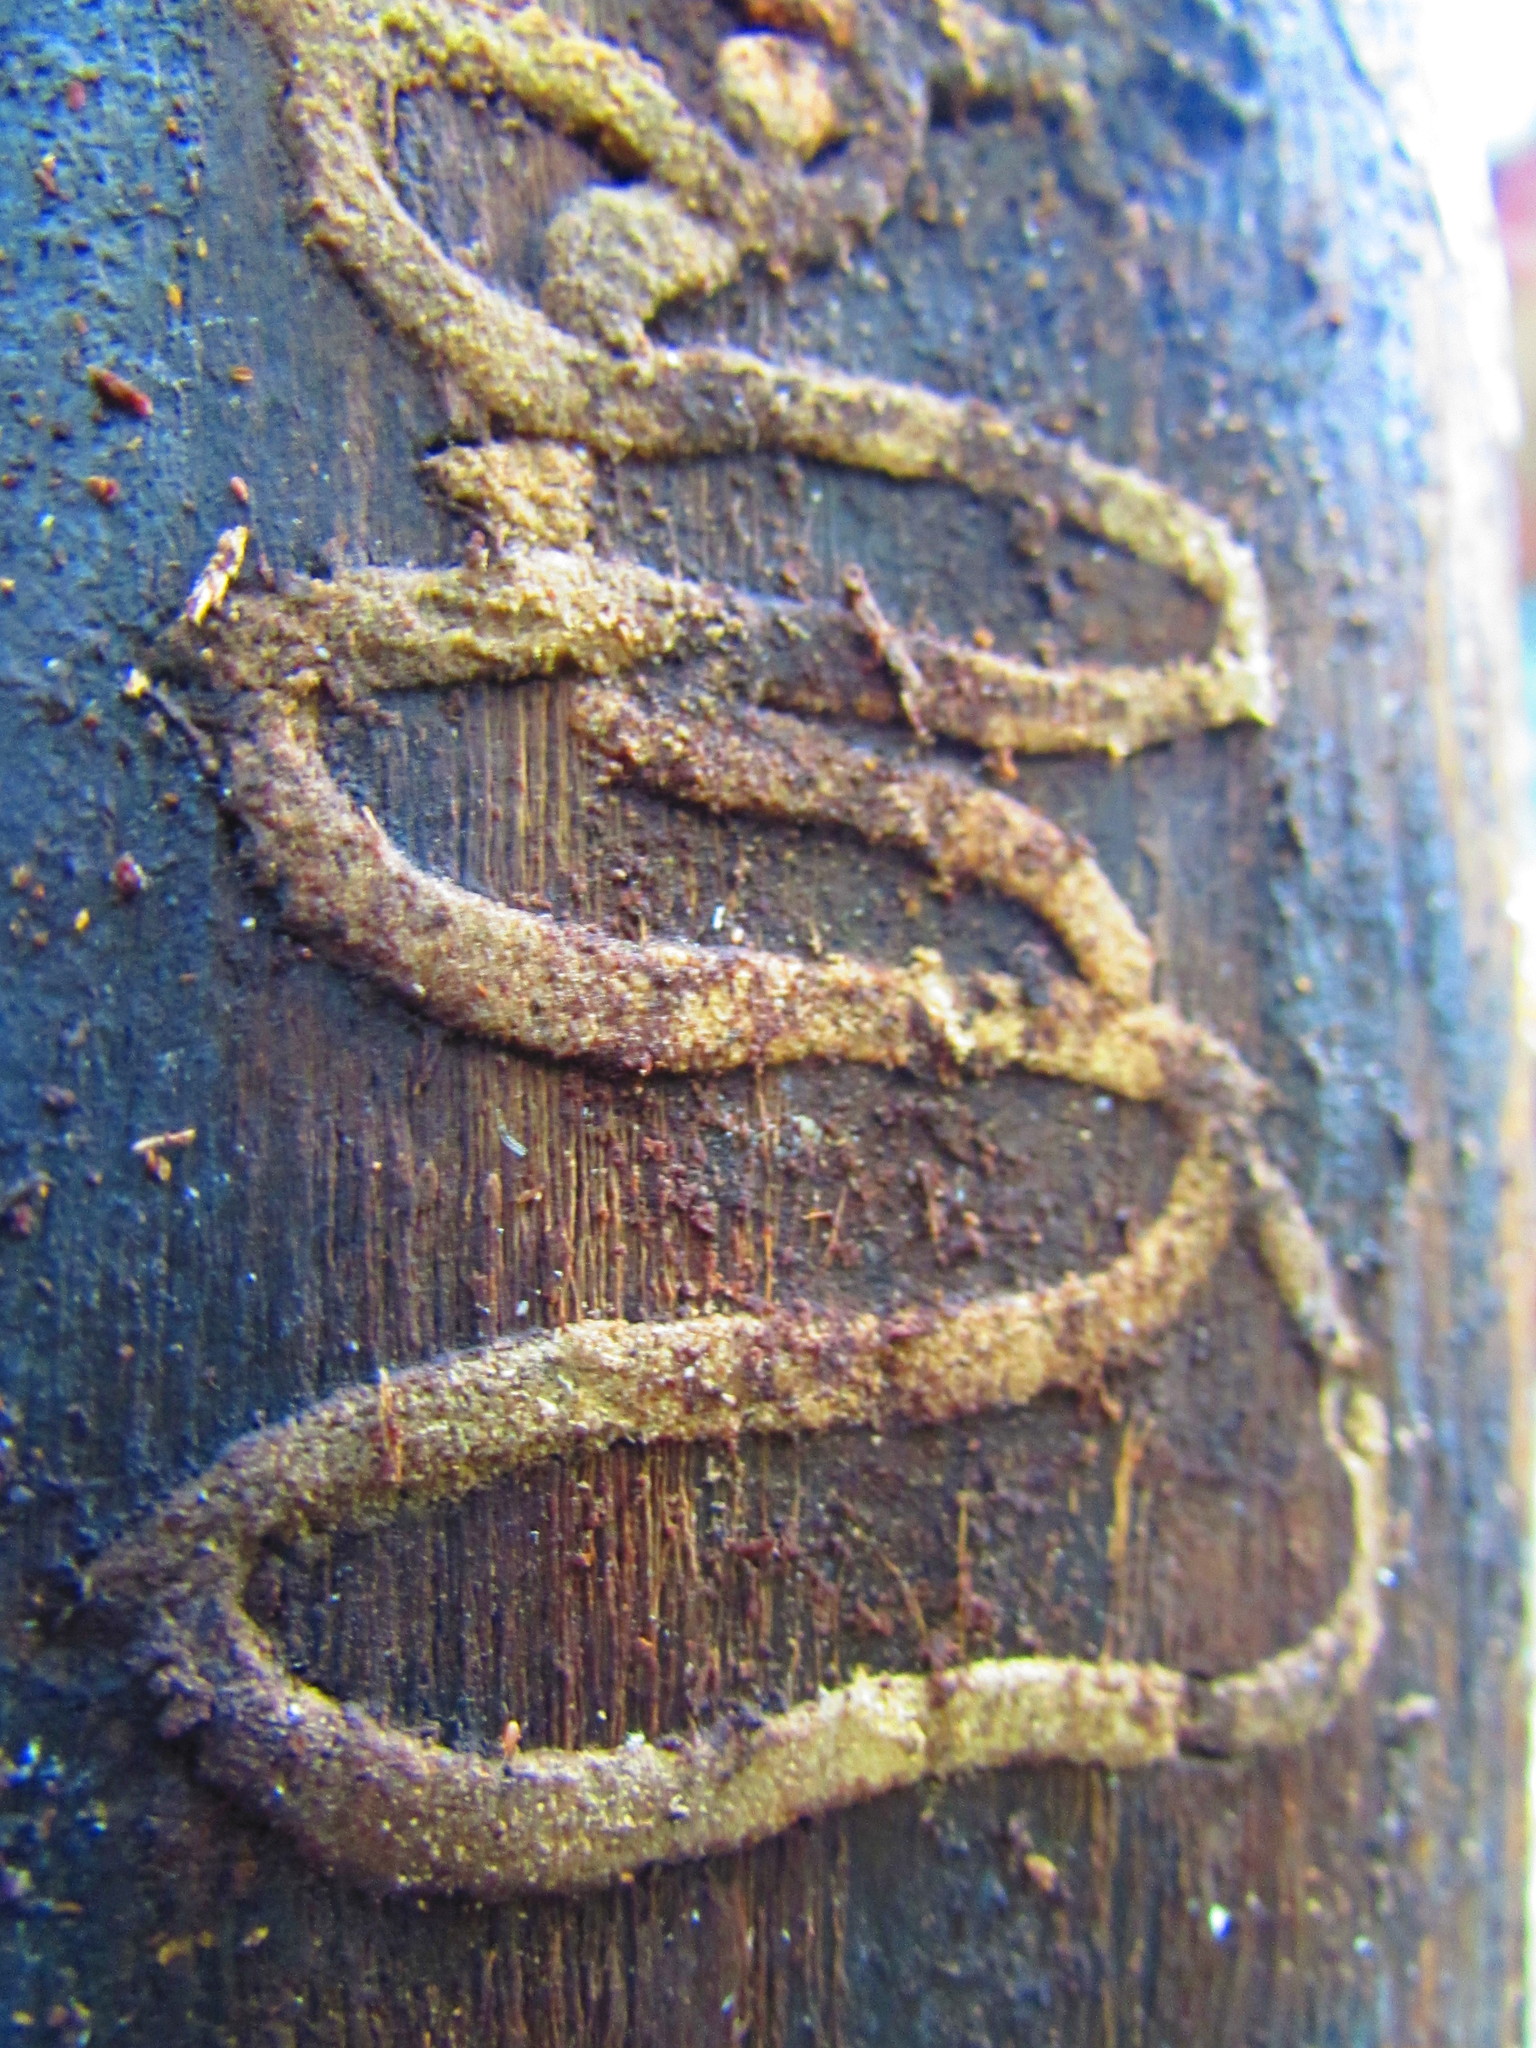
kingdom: Animalia
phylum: Arthropoda
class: Insecta
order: Coleoptera
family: Buprestidae
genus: Agrilus
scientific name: Agrilus planipennis
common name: Emerald ash borer
